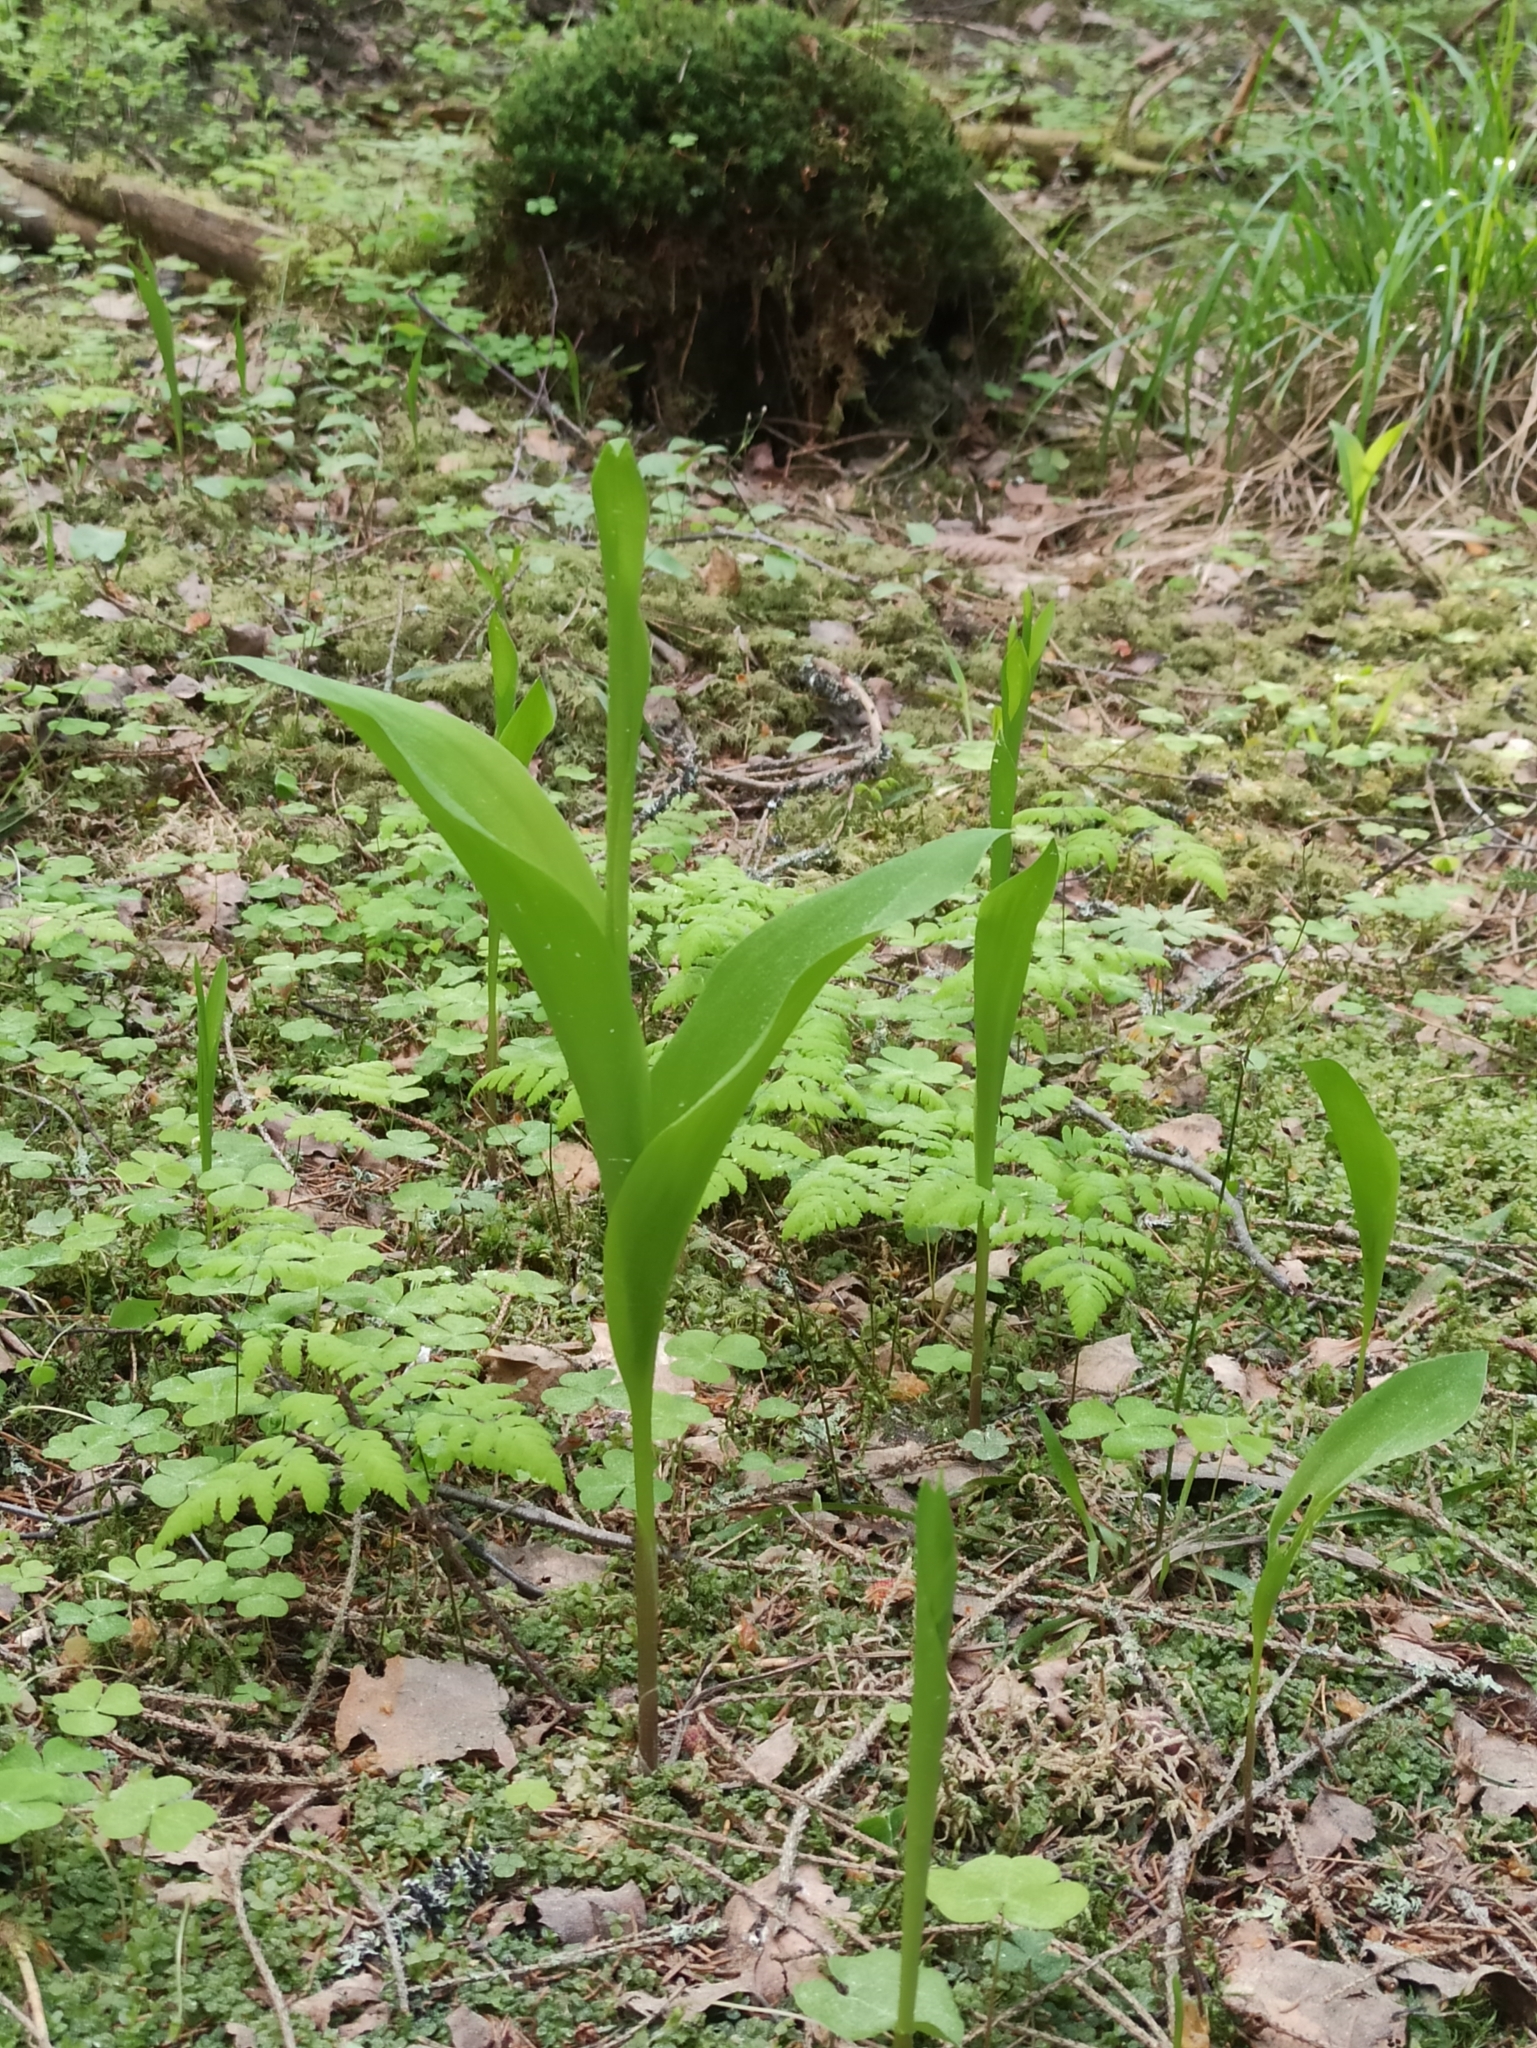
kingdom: Plantae
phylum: Tracheophyta
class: Liliopsida
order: Asparagales
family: Asparagaceae
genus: Convallaria
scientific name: Convallaria majalis
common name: Lily-of-the-valley
